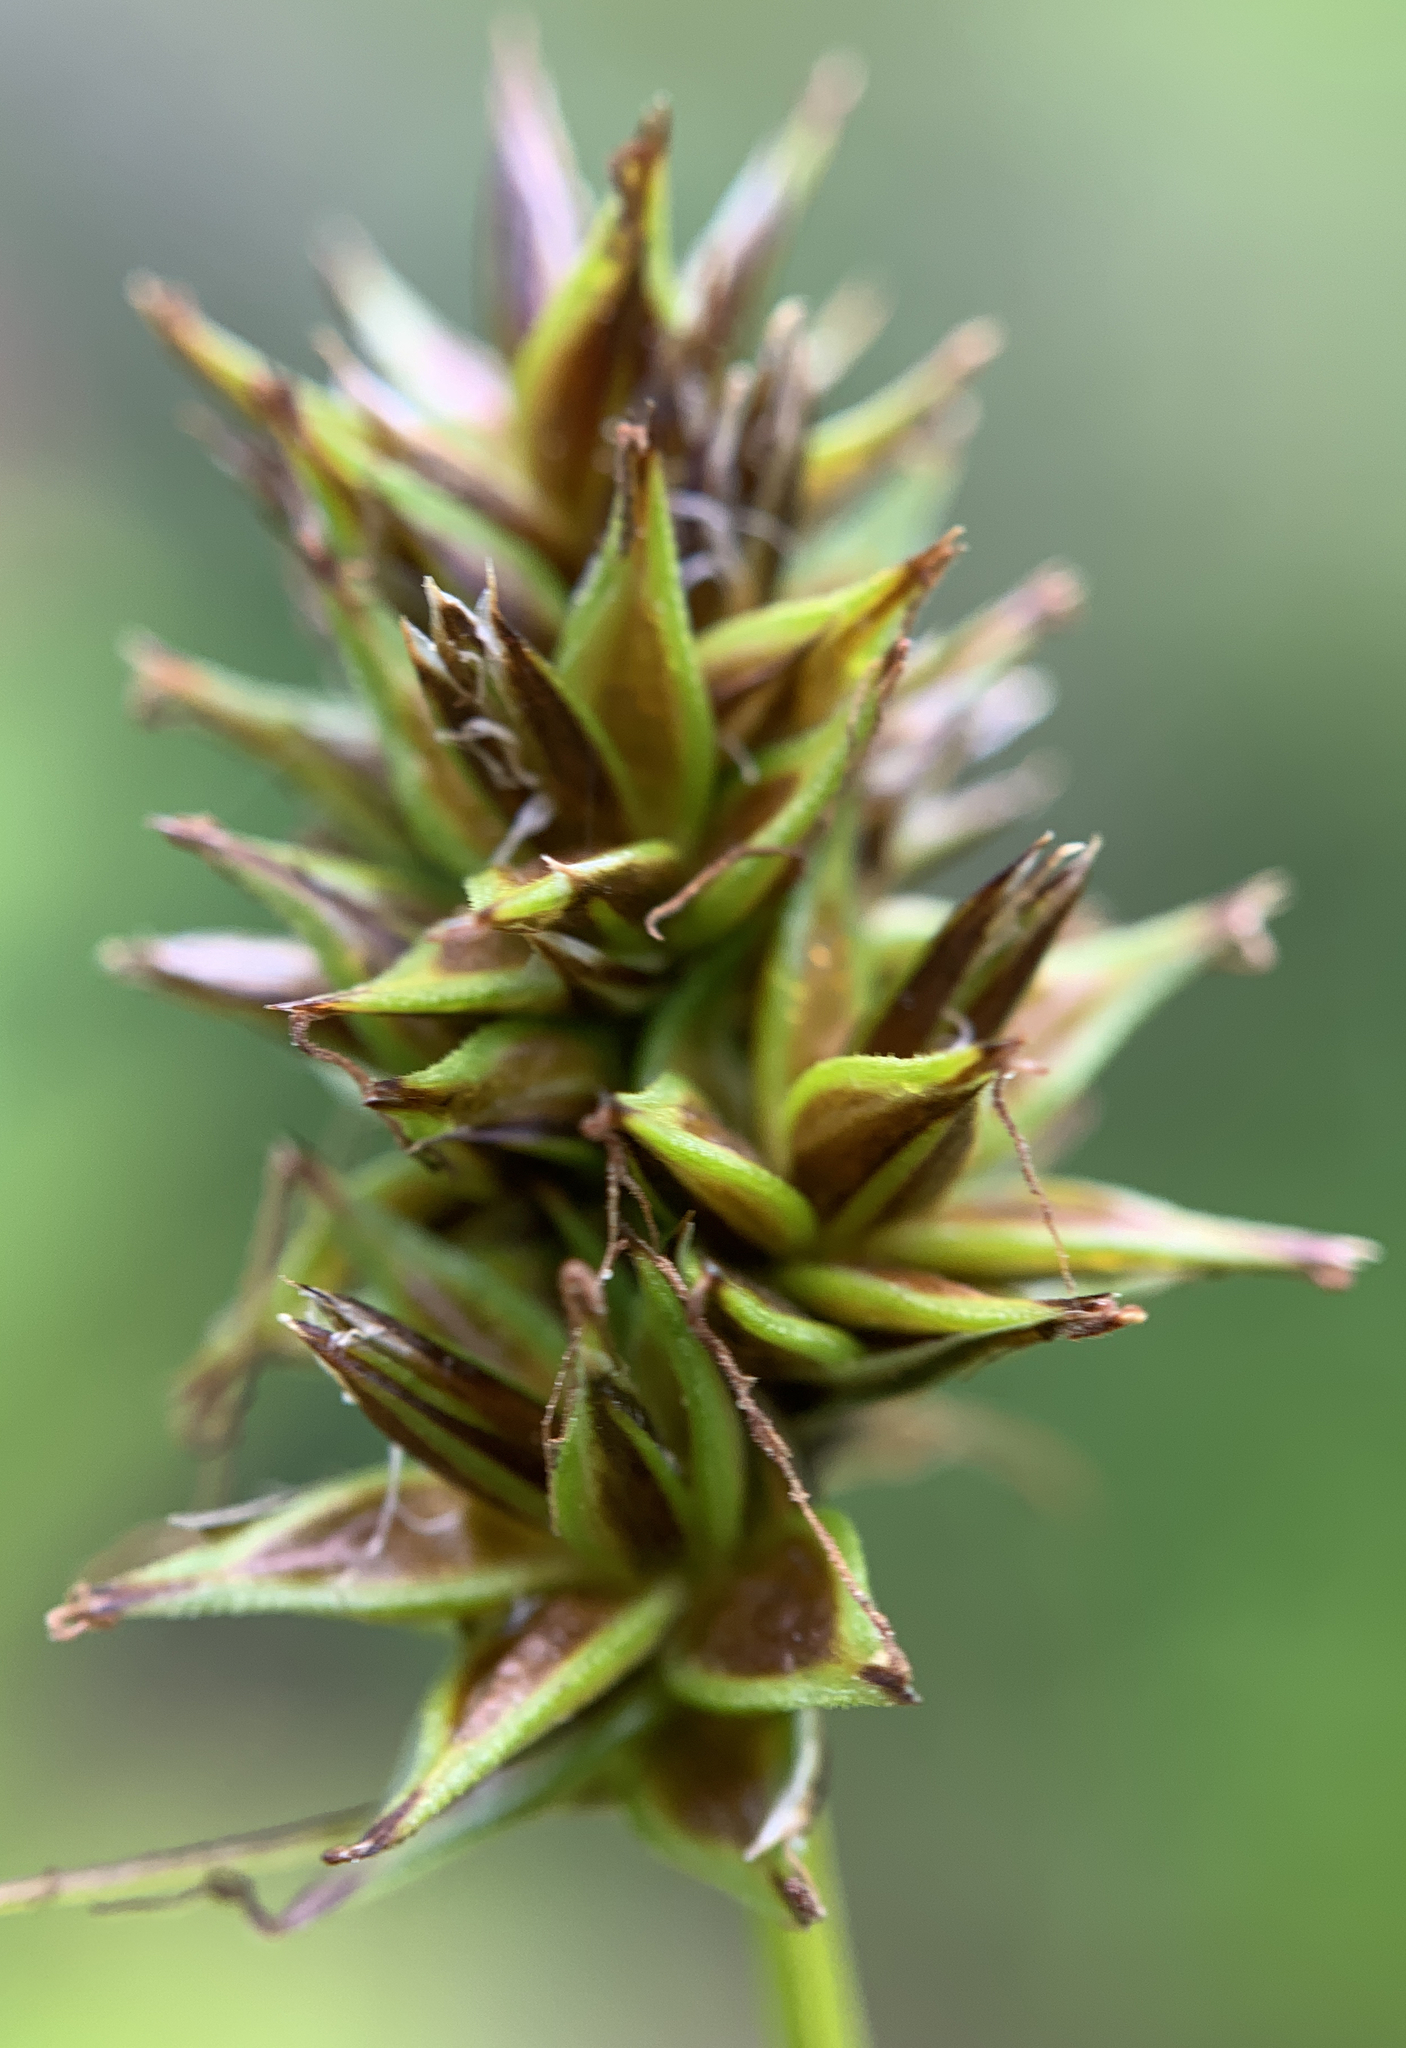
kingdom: Plantae
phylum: Tracheophyta
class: Liliopsida
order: Poales
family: Cyperaceae
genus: Carex
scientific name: Carex hoodii
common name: Hood's sedge
